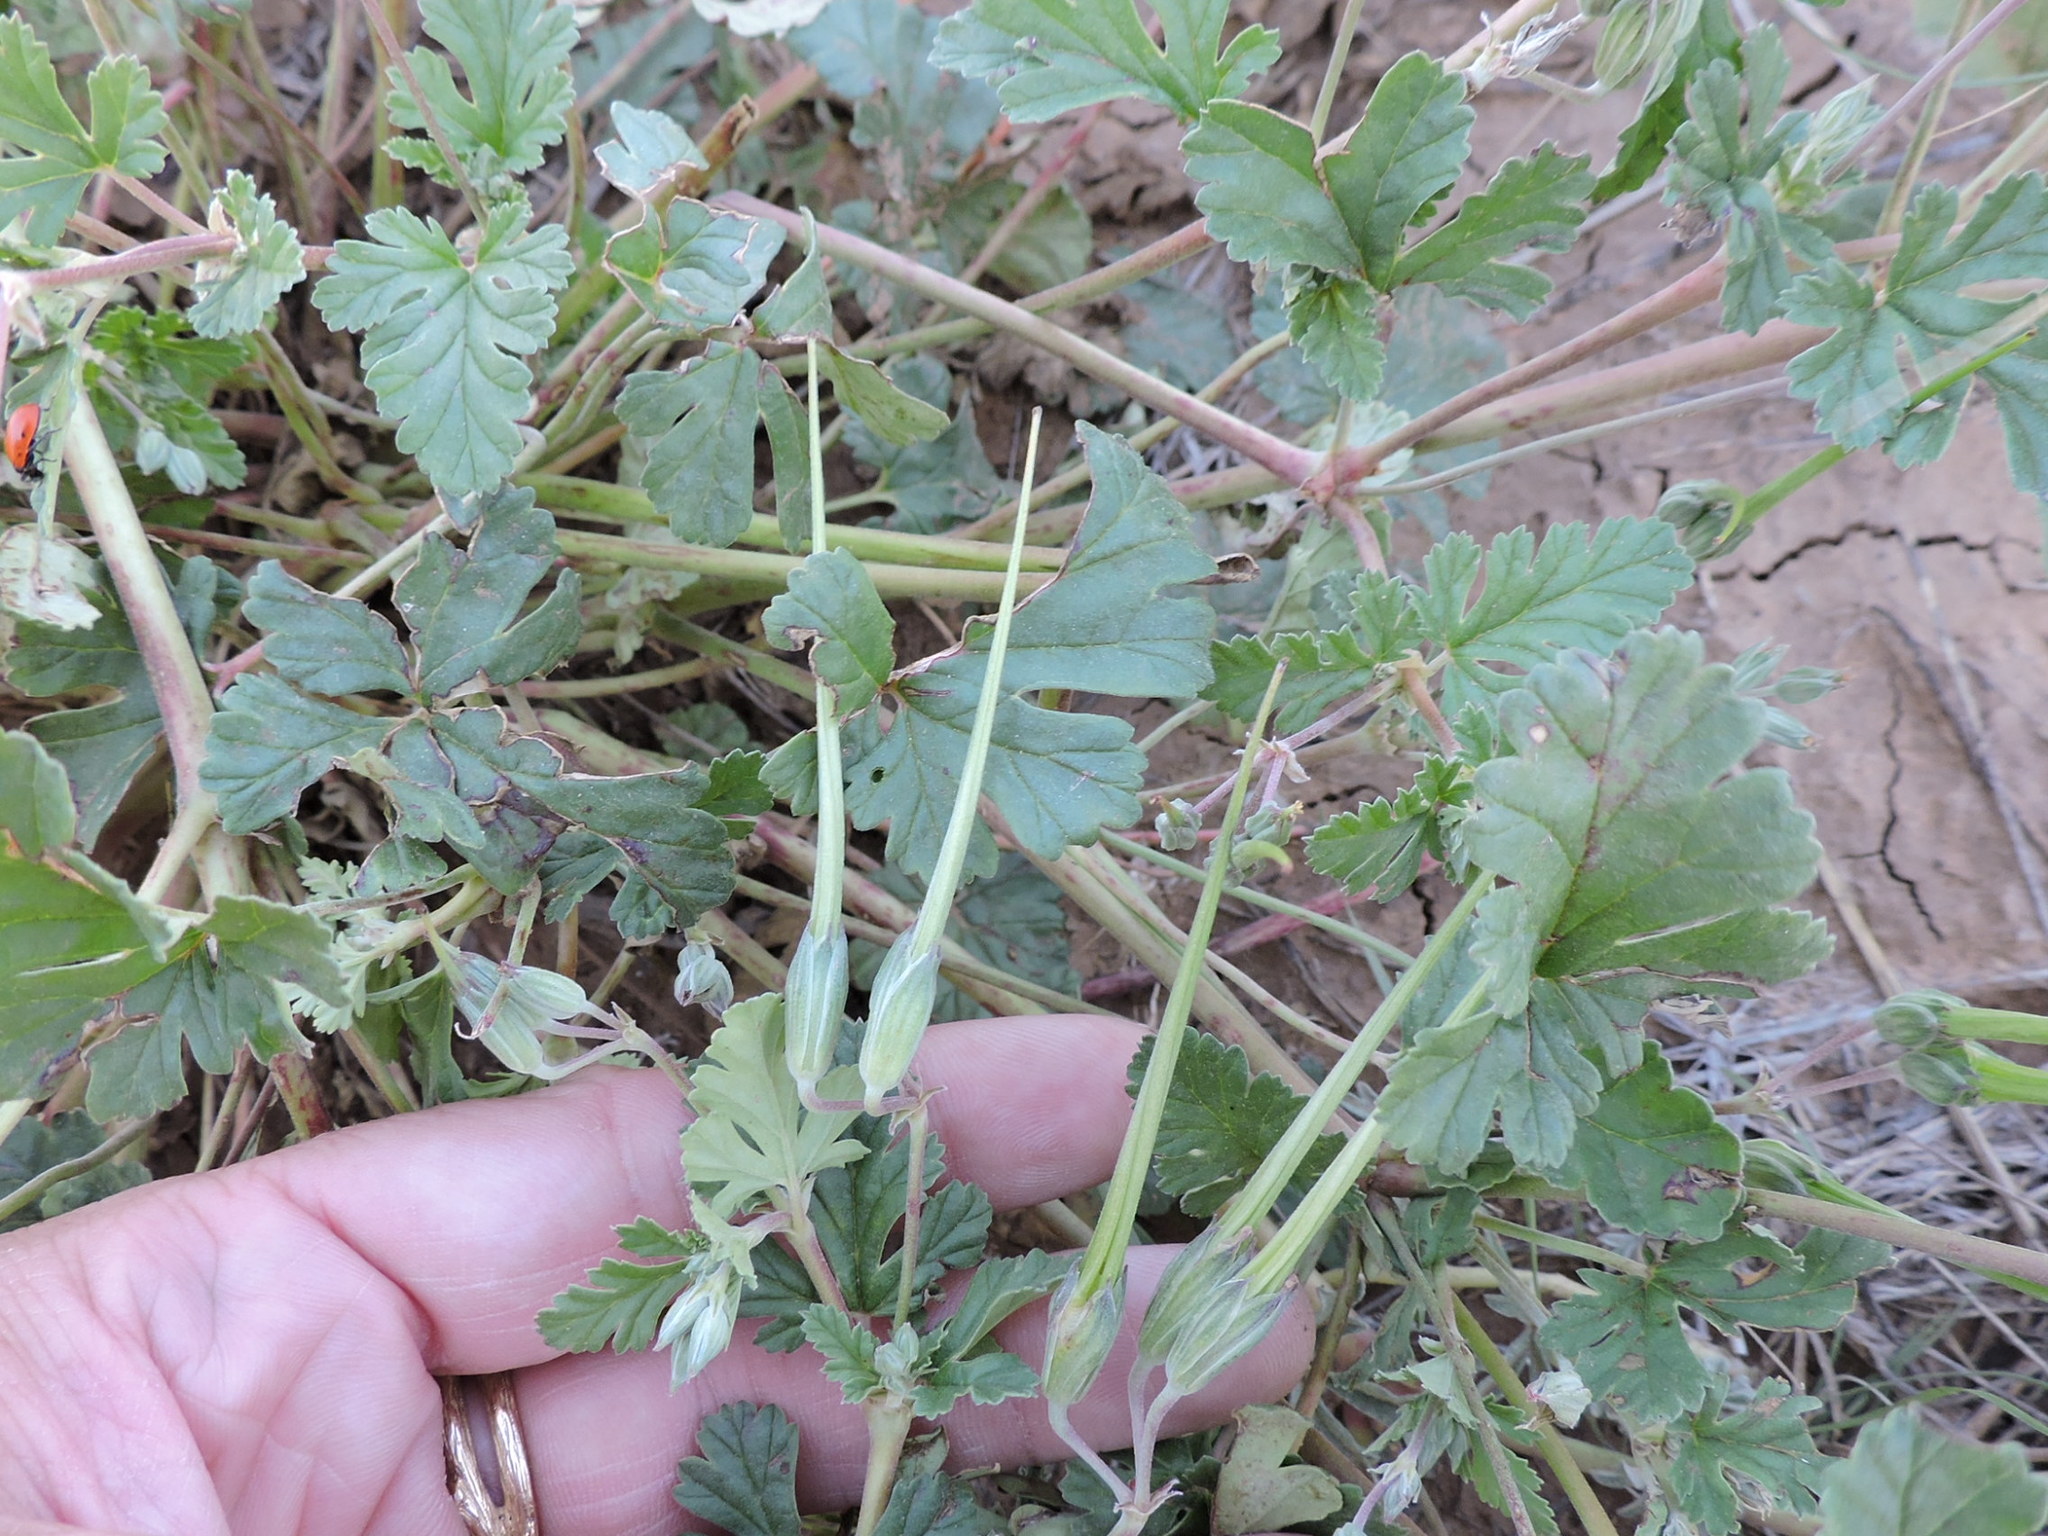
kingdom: Plantae
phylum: Tracheophyta
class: Magnoliopsida
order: Geraniales
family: Geraniaceae
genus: Erodium
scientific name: Erodium texanum
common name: Texas stork's-bill
